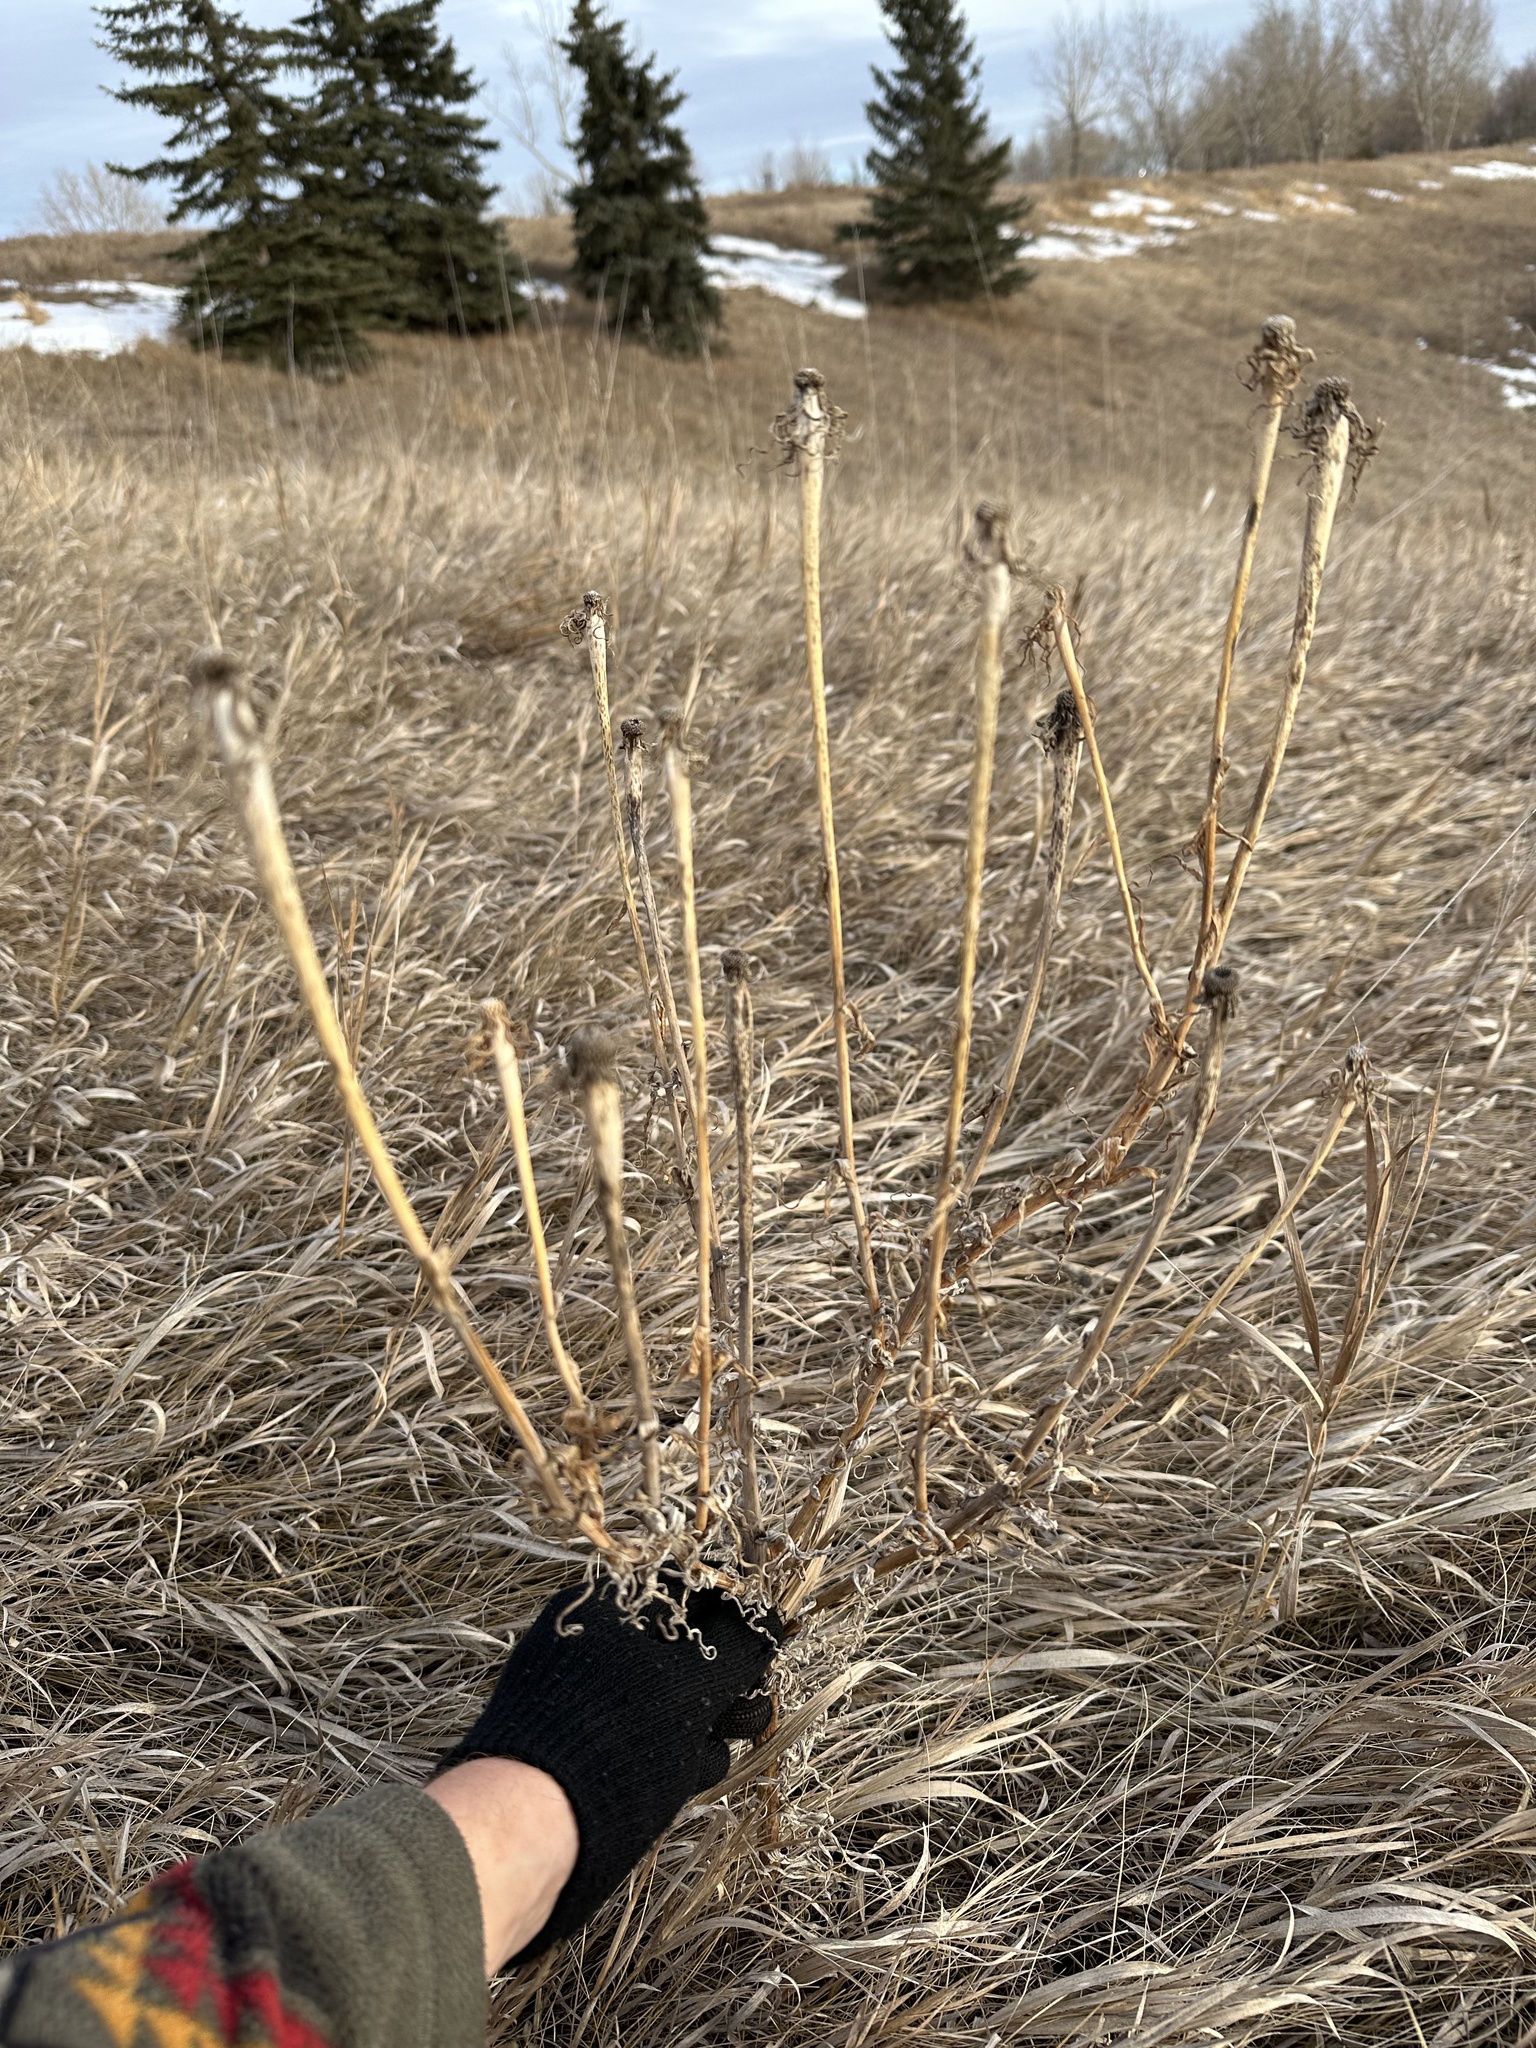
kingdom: Plantae
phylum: Tracheophyta
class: Magnoliopsida
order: Asterales
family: Asteraceae
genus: Tragopogon
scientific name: Tragopogon dubius
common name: Yellow salsify
